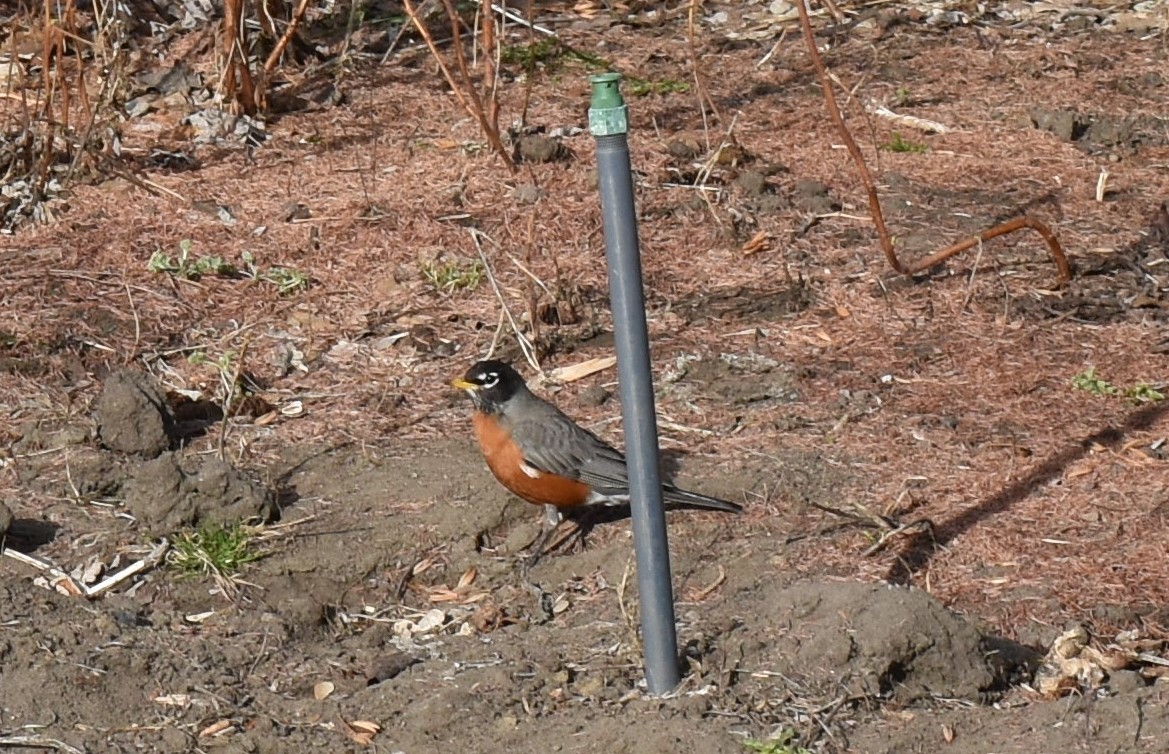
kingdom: Animalia
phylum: Chordata
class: Aves
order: Passeriformes
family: Turdidae
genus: Turdus
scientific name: Turdus migratorius
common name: American robin
